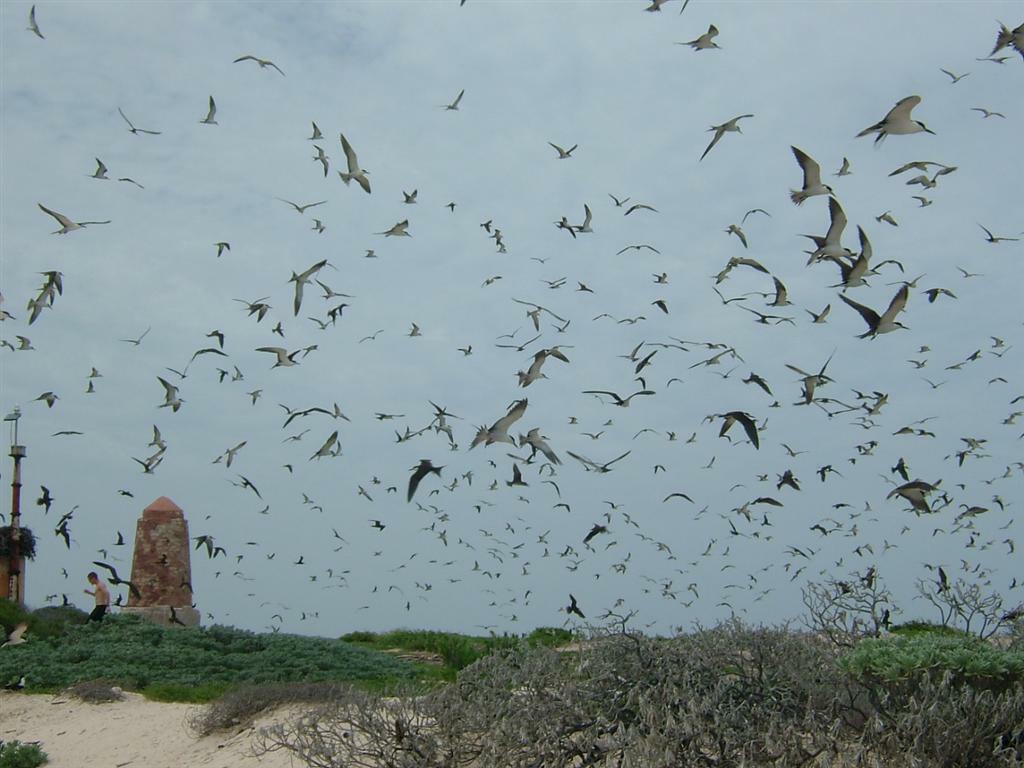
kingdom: Animalia
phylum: Chordata
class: Aves
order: Charadriiformes
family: Laridae
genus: Onychoprion
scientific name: Onychoprion fuscatus
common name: Sooty tern
